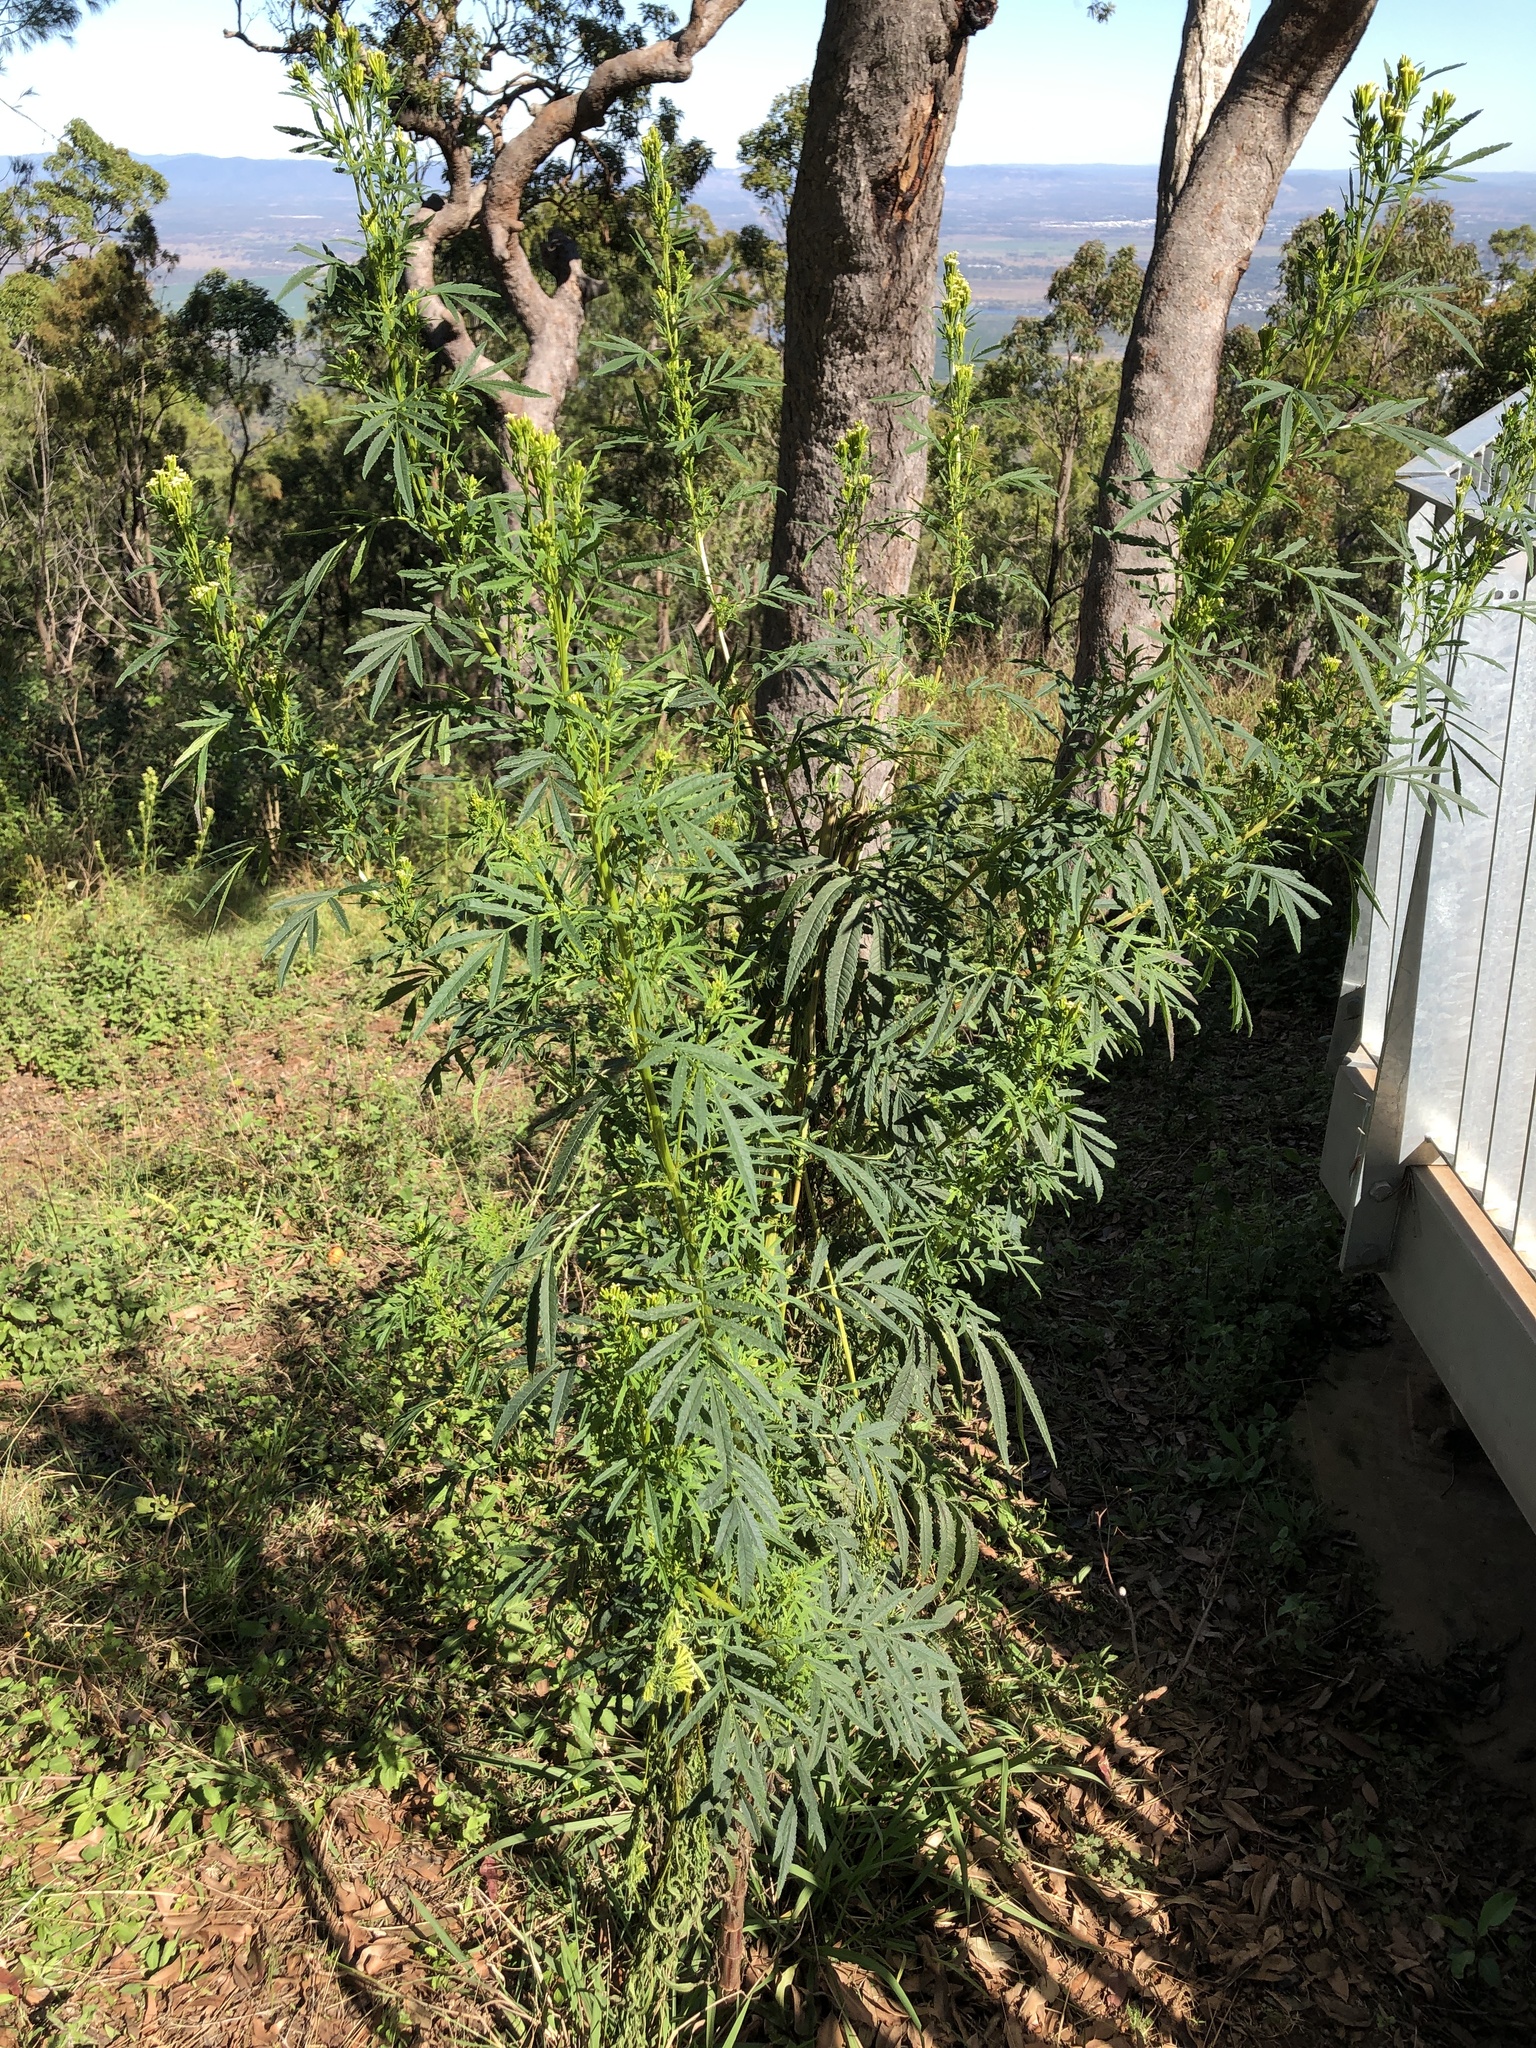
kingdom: Plantae
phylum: Tracheophyta
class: Magnoliopsida
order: Asterales
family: Asteraceae
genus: Tagetes
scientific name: Tagetes minuta
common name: Muster john henry
